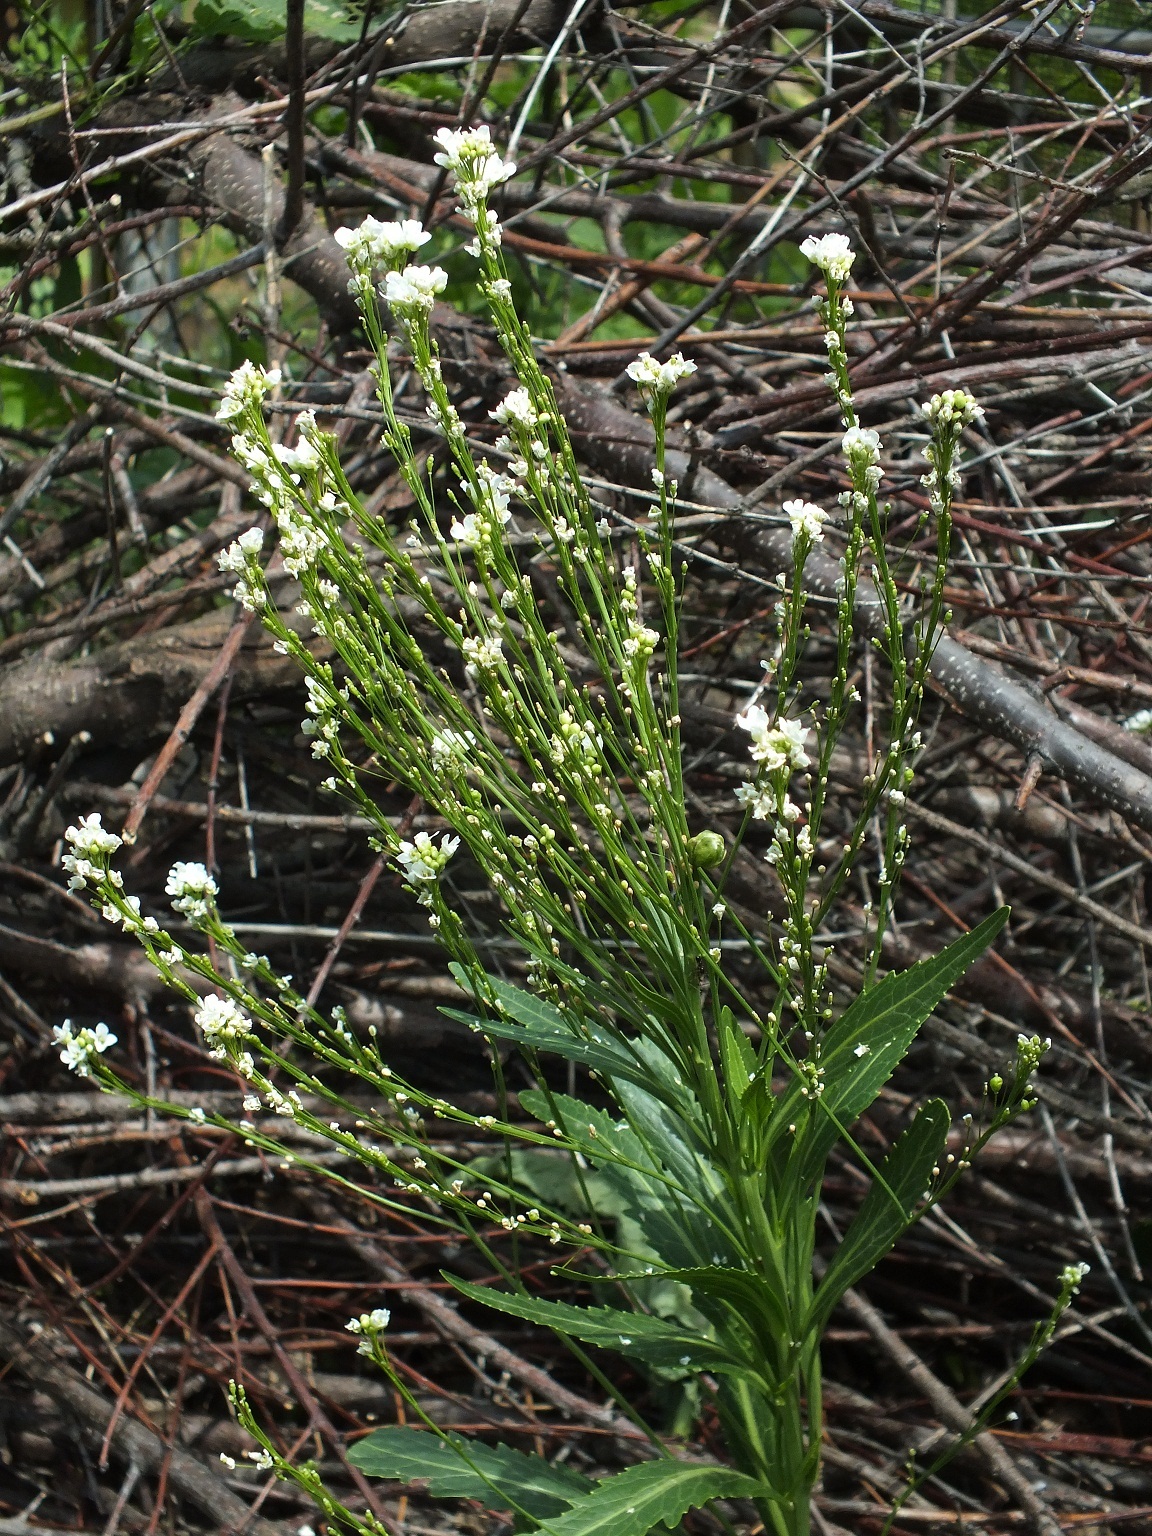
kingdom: Plantae
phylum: Tracheophyta
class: Magnoliopsida
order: Brassicales
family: Brassicaceae
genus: Armoracia
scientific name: Armoracia rusticana
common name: Horseradish
